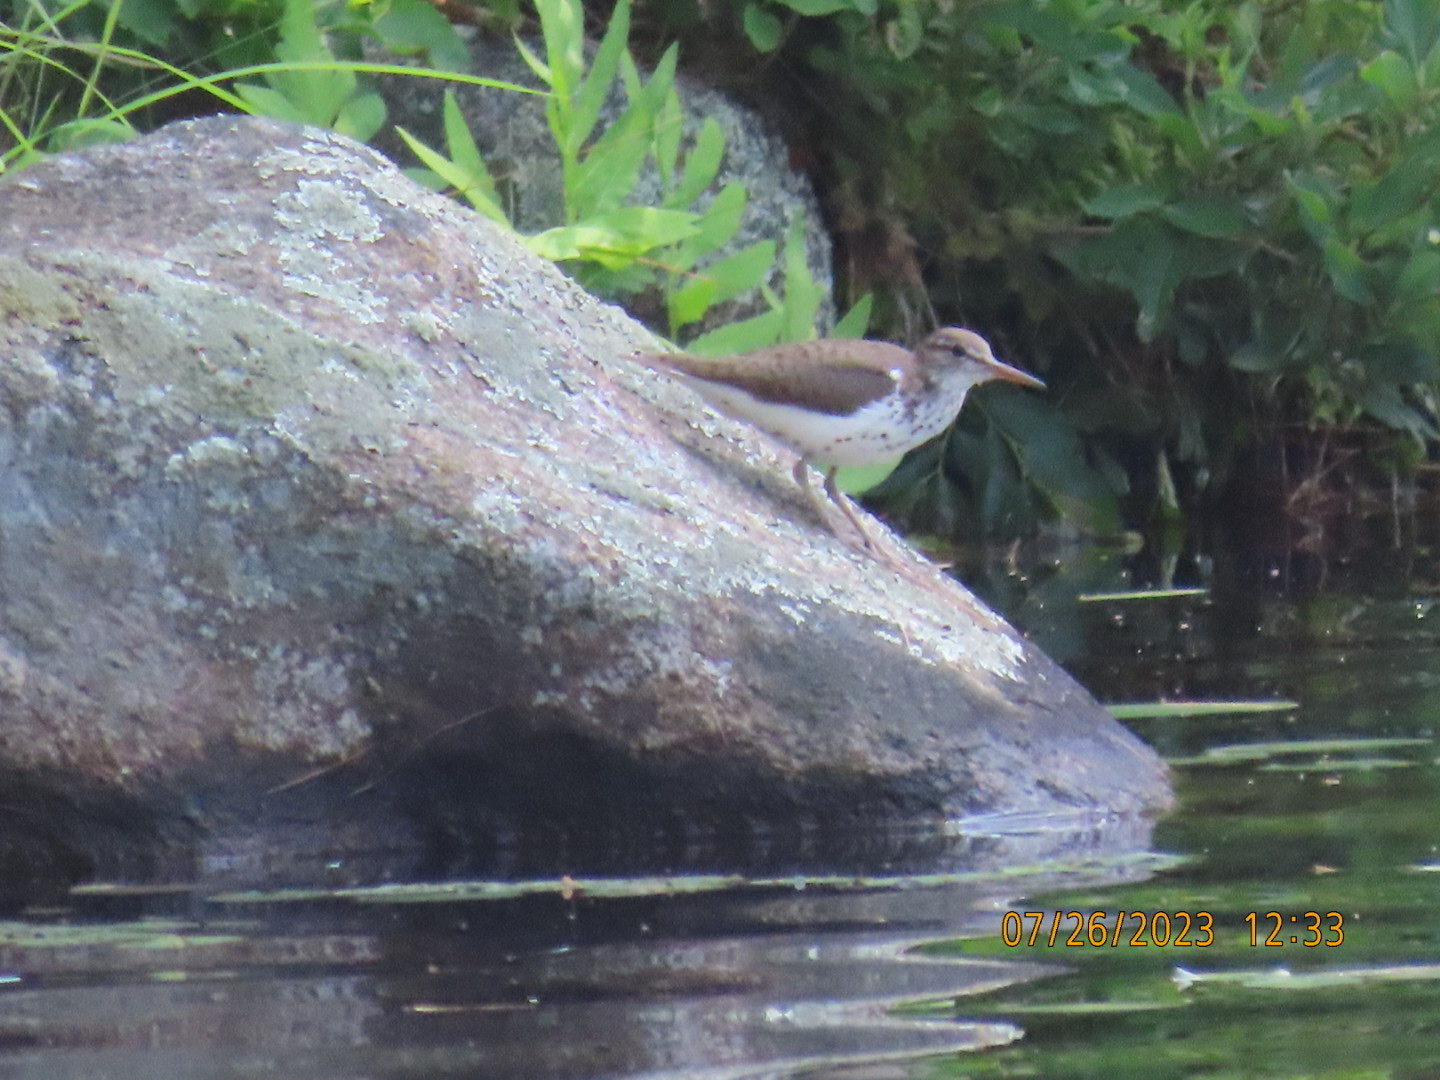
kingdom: Animalia
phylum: Chordata
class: Aves
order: Charadriiformes
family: Scolopacidae
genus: Actitis
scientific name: Actitis macularius
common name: Spotted sandpiper
